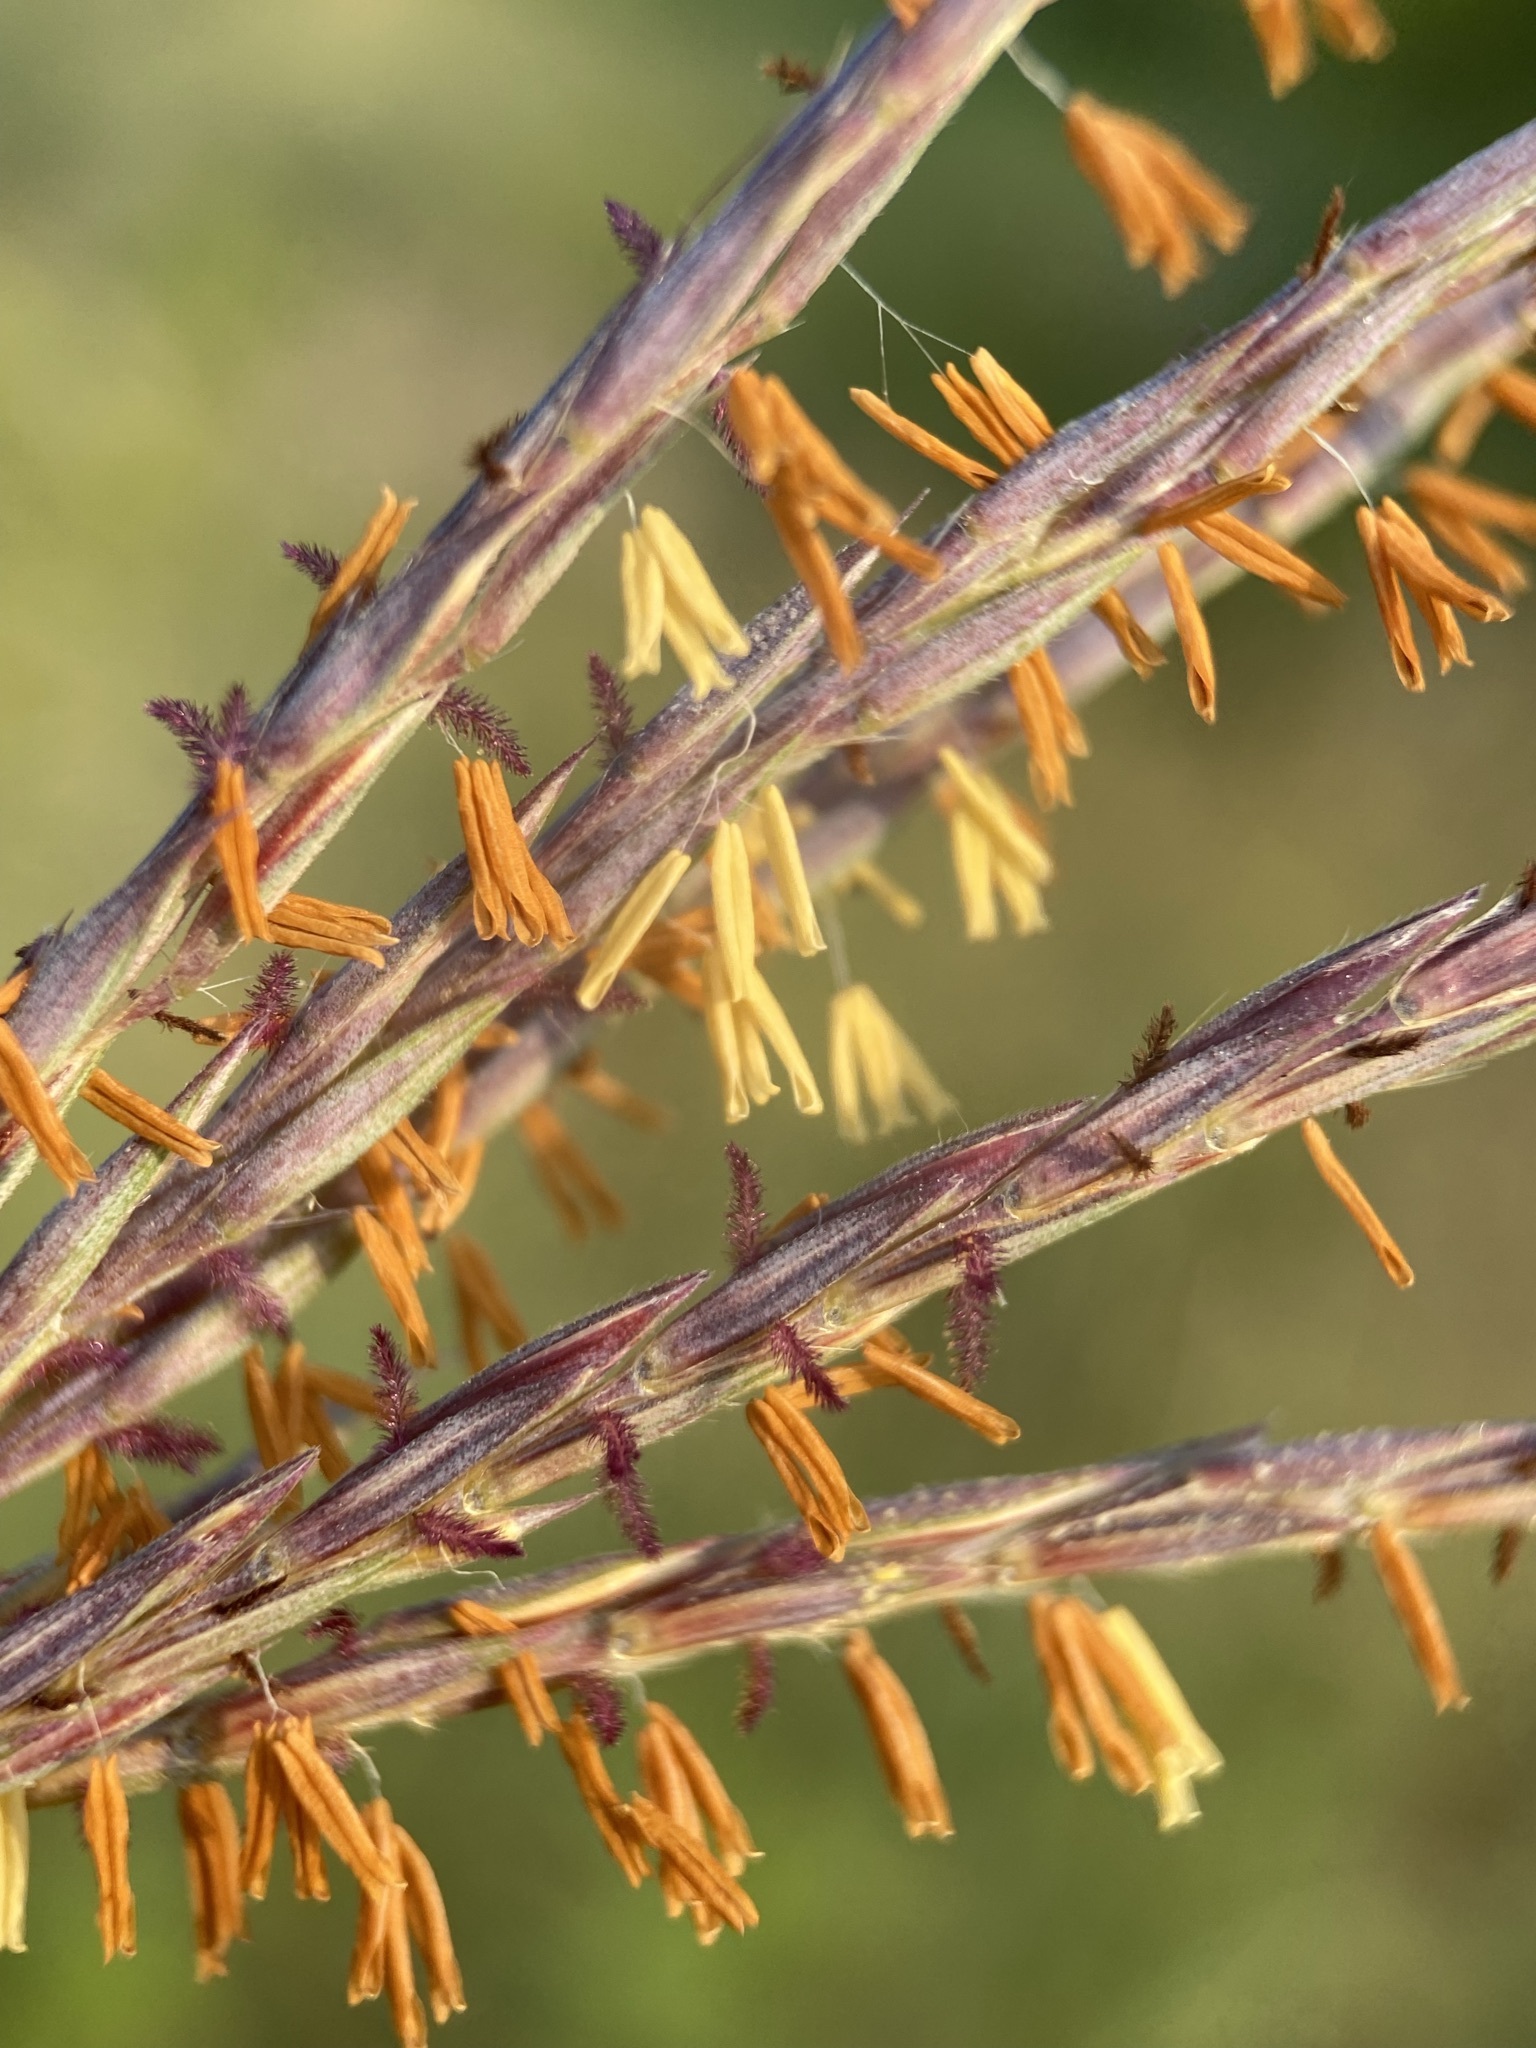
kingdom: Plantae
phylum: Tracheophyta
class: Liliopsida
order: Poales
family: Poaceae
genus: Andropogon
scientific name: Andropogon gerardi
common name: Big bluestem
